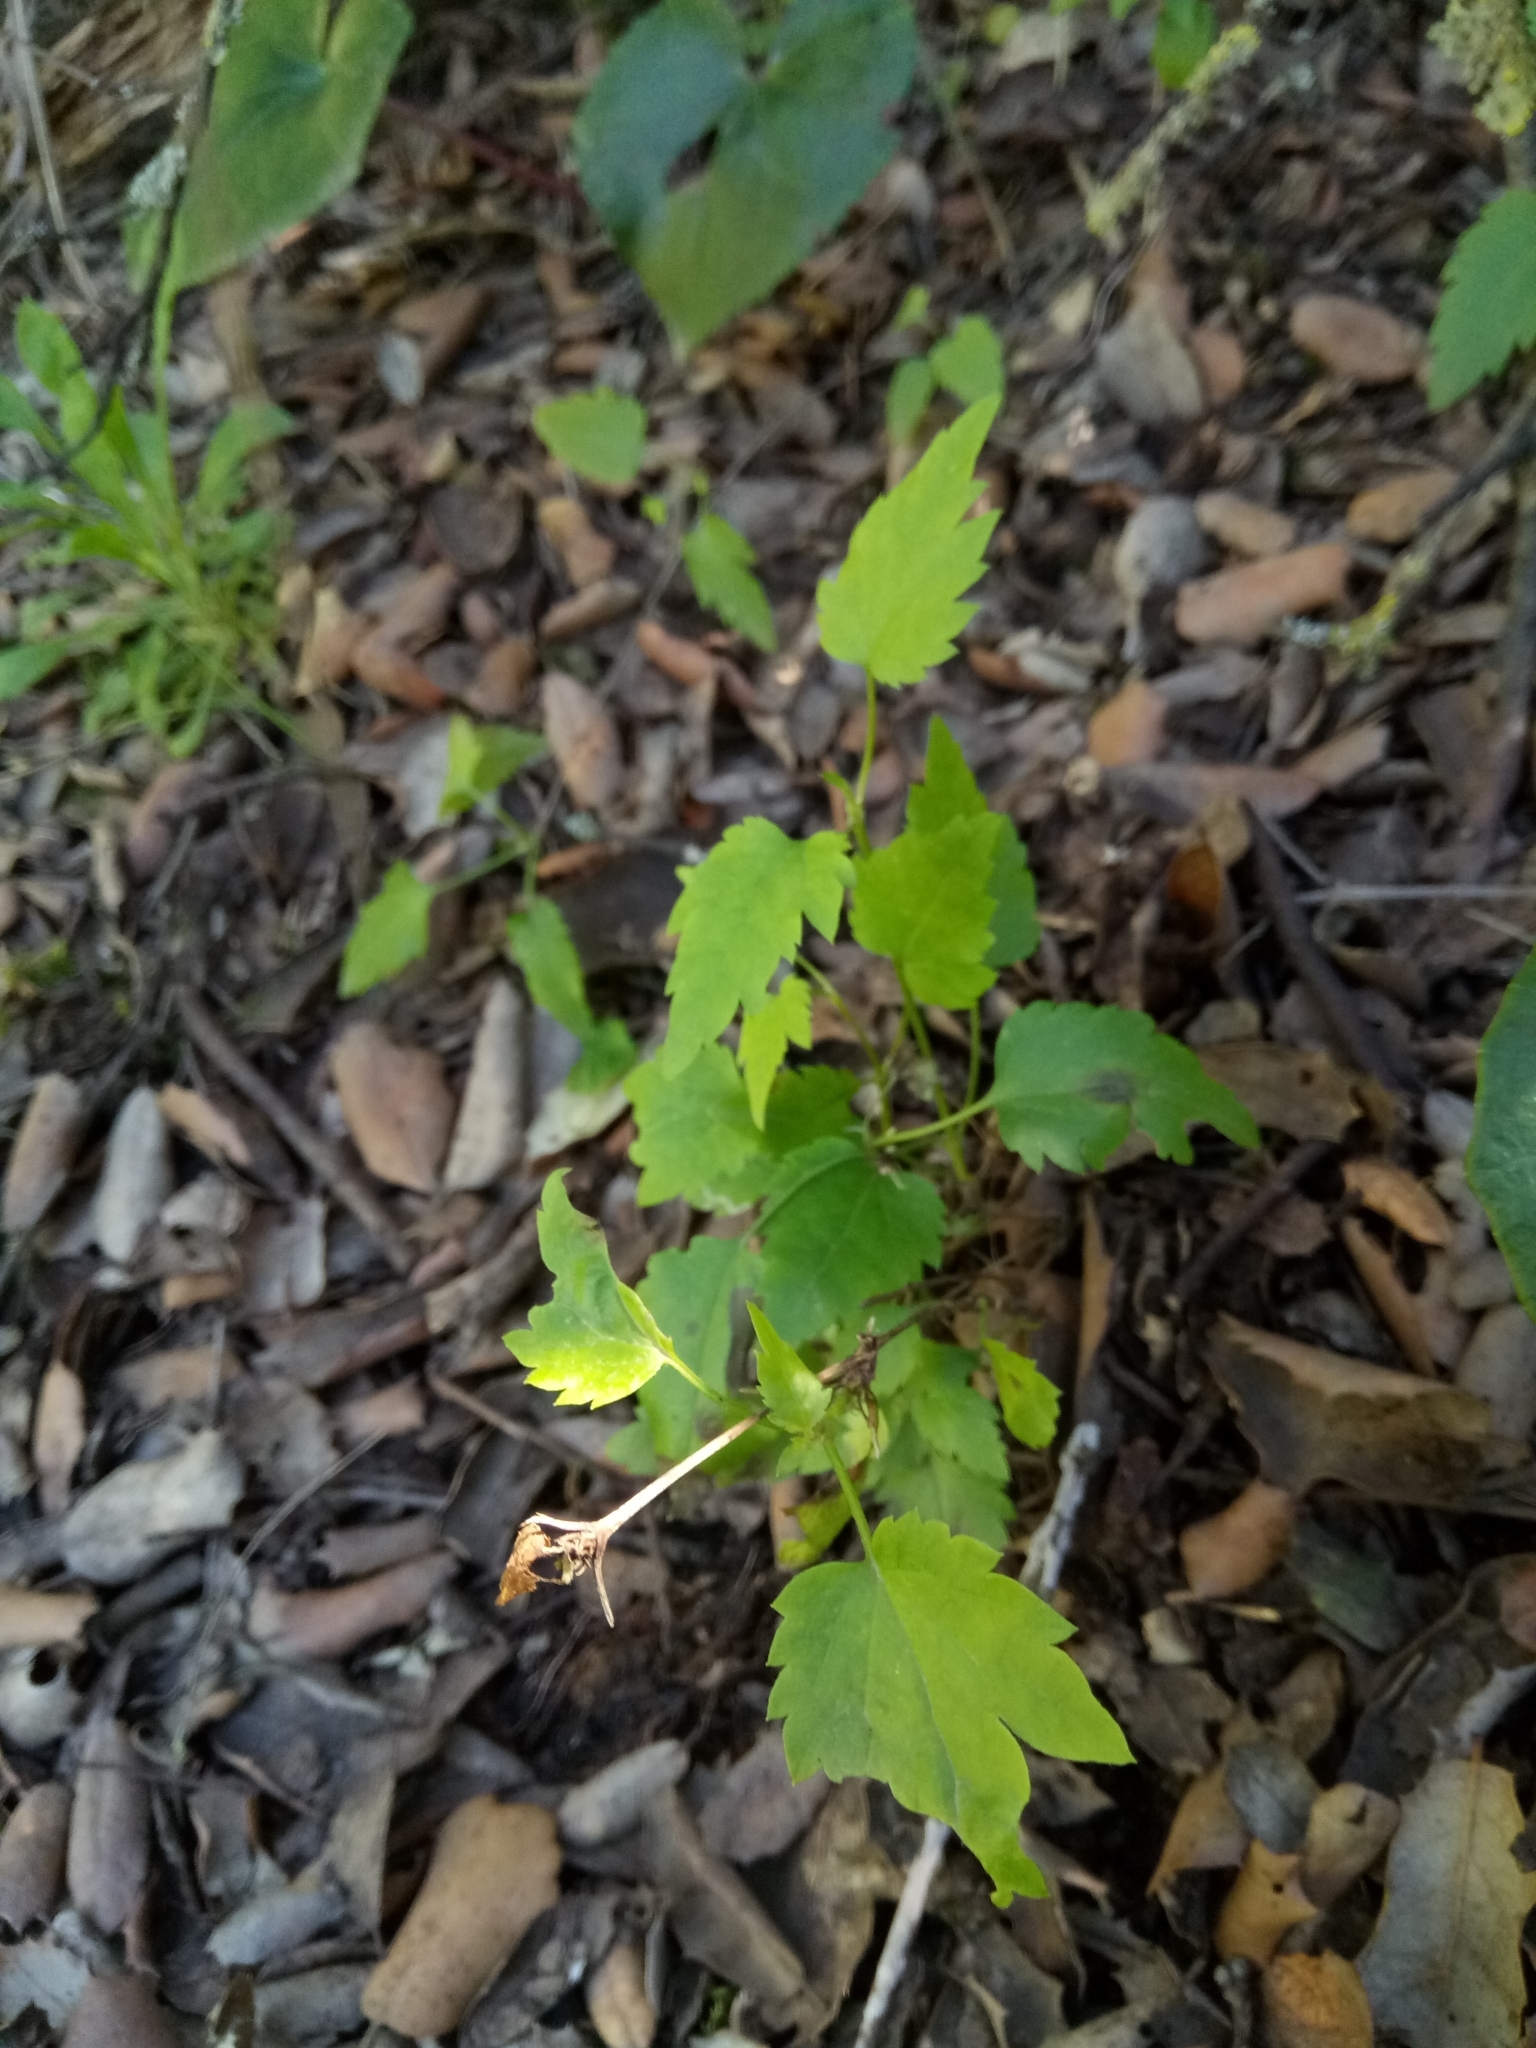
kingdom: Plantae
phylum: Tracheophyta
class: Magnoliopsida
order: Ranunculales
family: Ranunculaceae
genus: Clematis
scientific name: Clematis cirrhosa
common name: Early virgin's-bower
